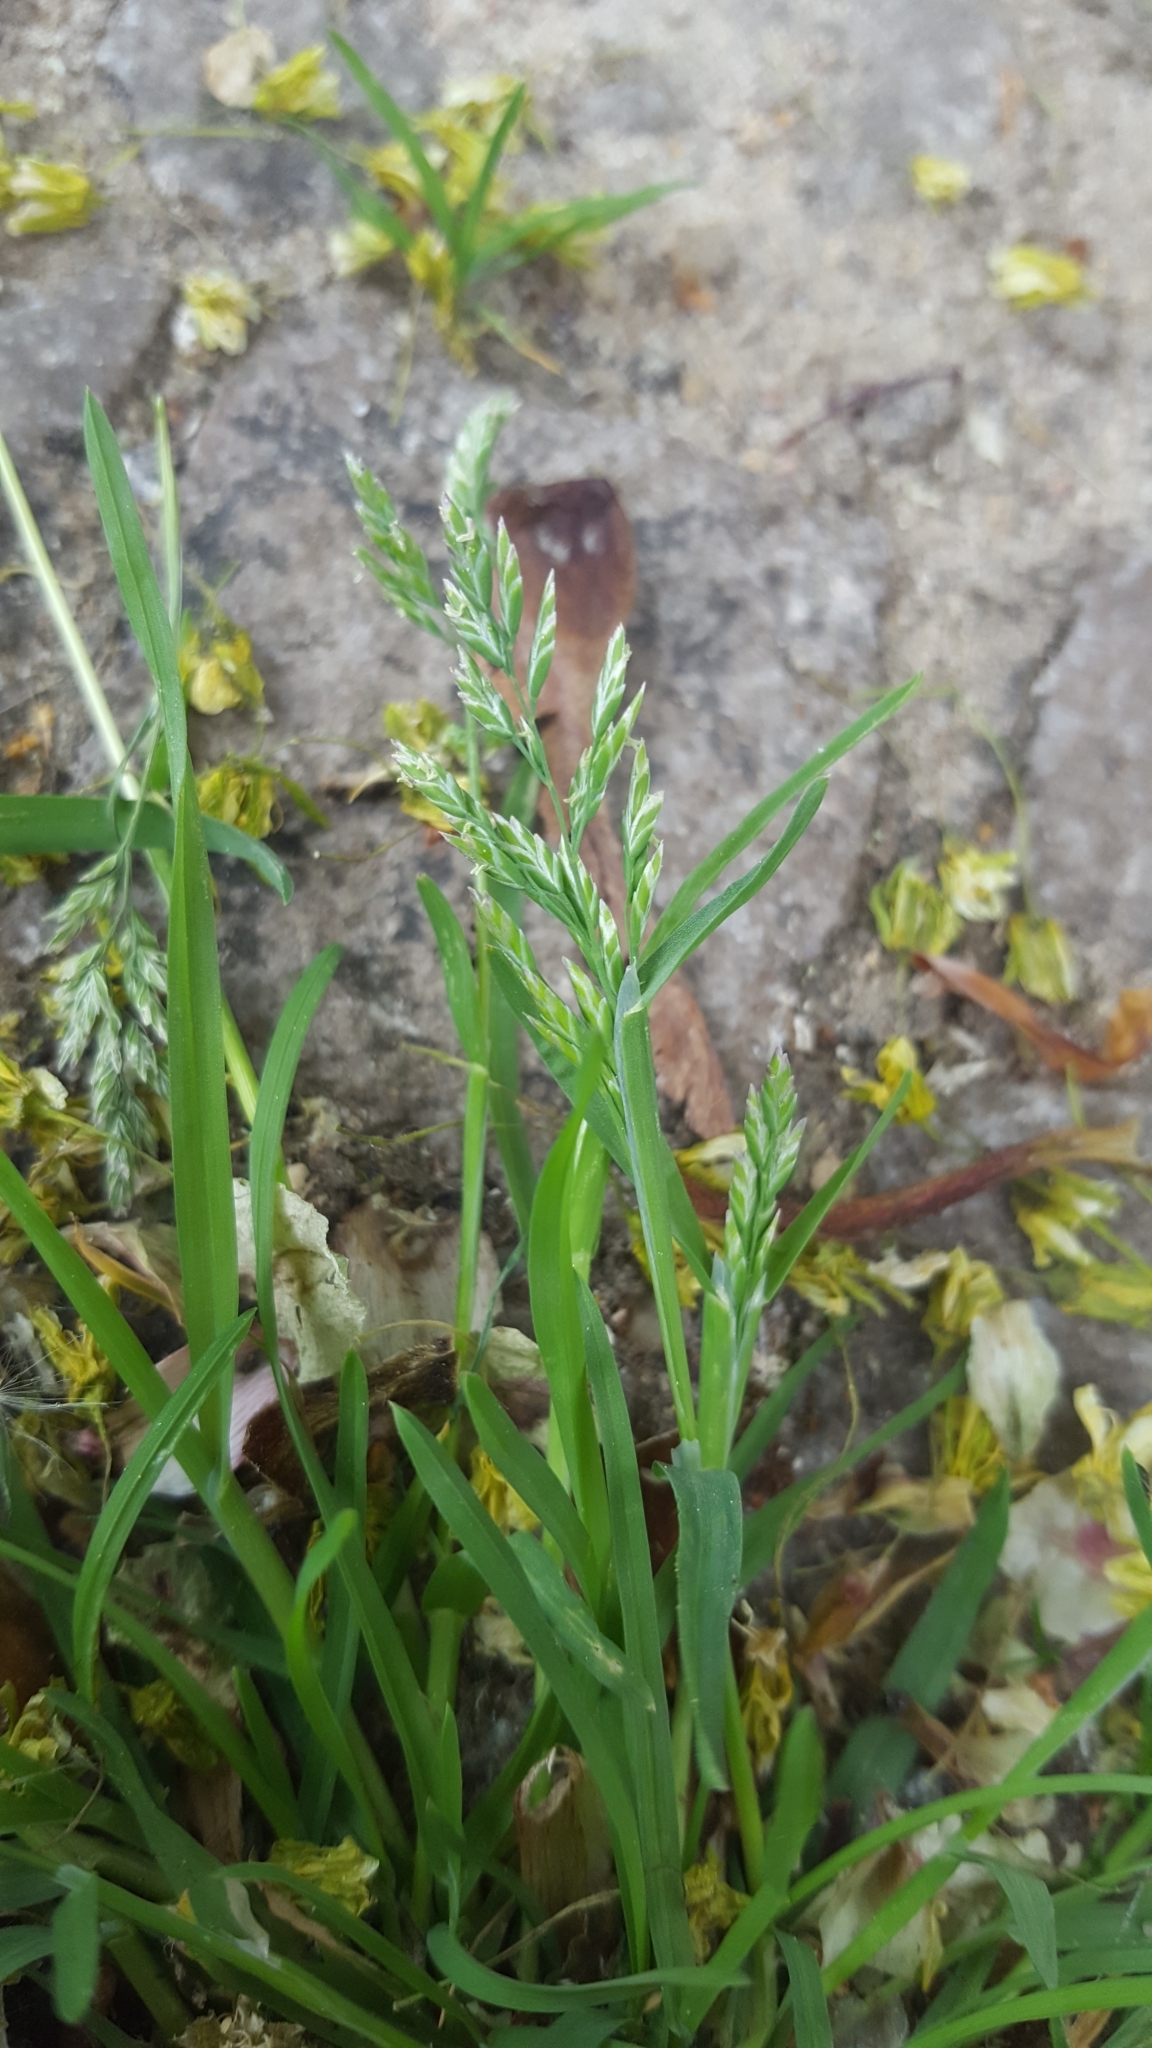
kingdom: Plantae
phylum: Tracheophyta
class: Liliopsida
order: Poales
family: Poaceae
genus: Poa
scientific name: Poa annua
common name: Annual bluegrass
